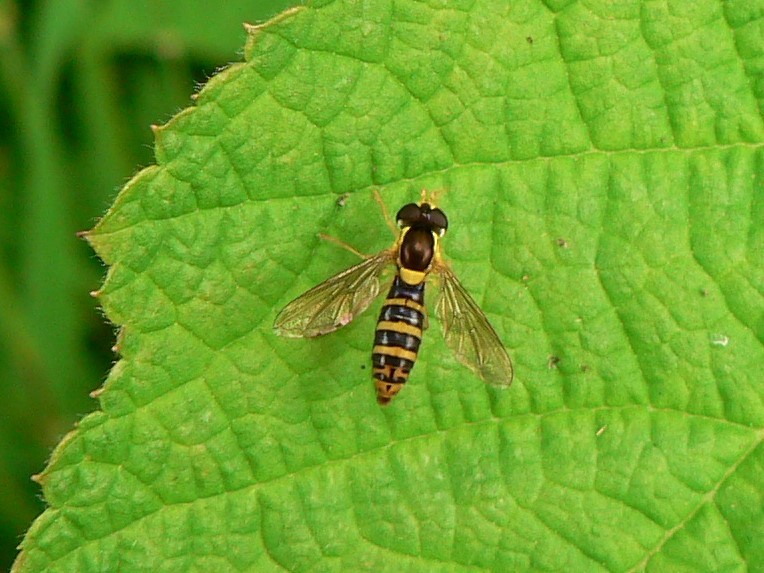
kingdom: Animalia
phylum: Arthropoda
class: Insecta
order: Diptera
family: Syrphidae
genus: Sphaerophoria
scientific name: Sphaerophoria
